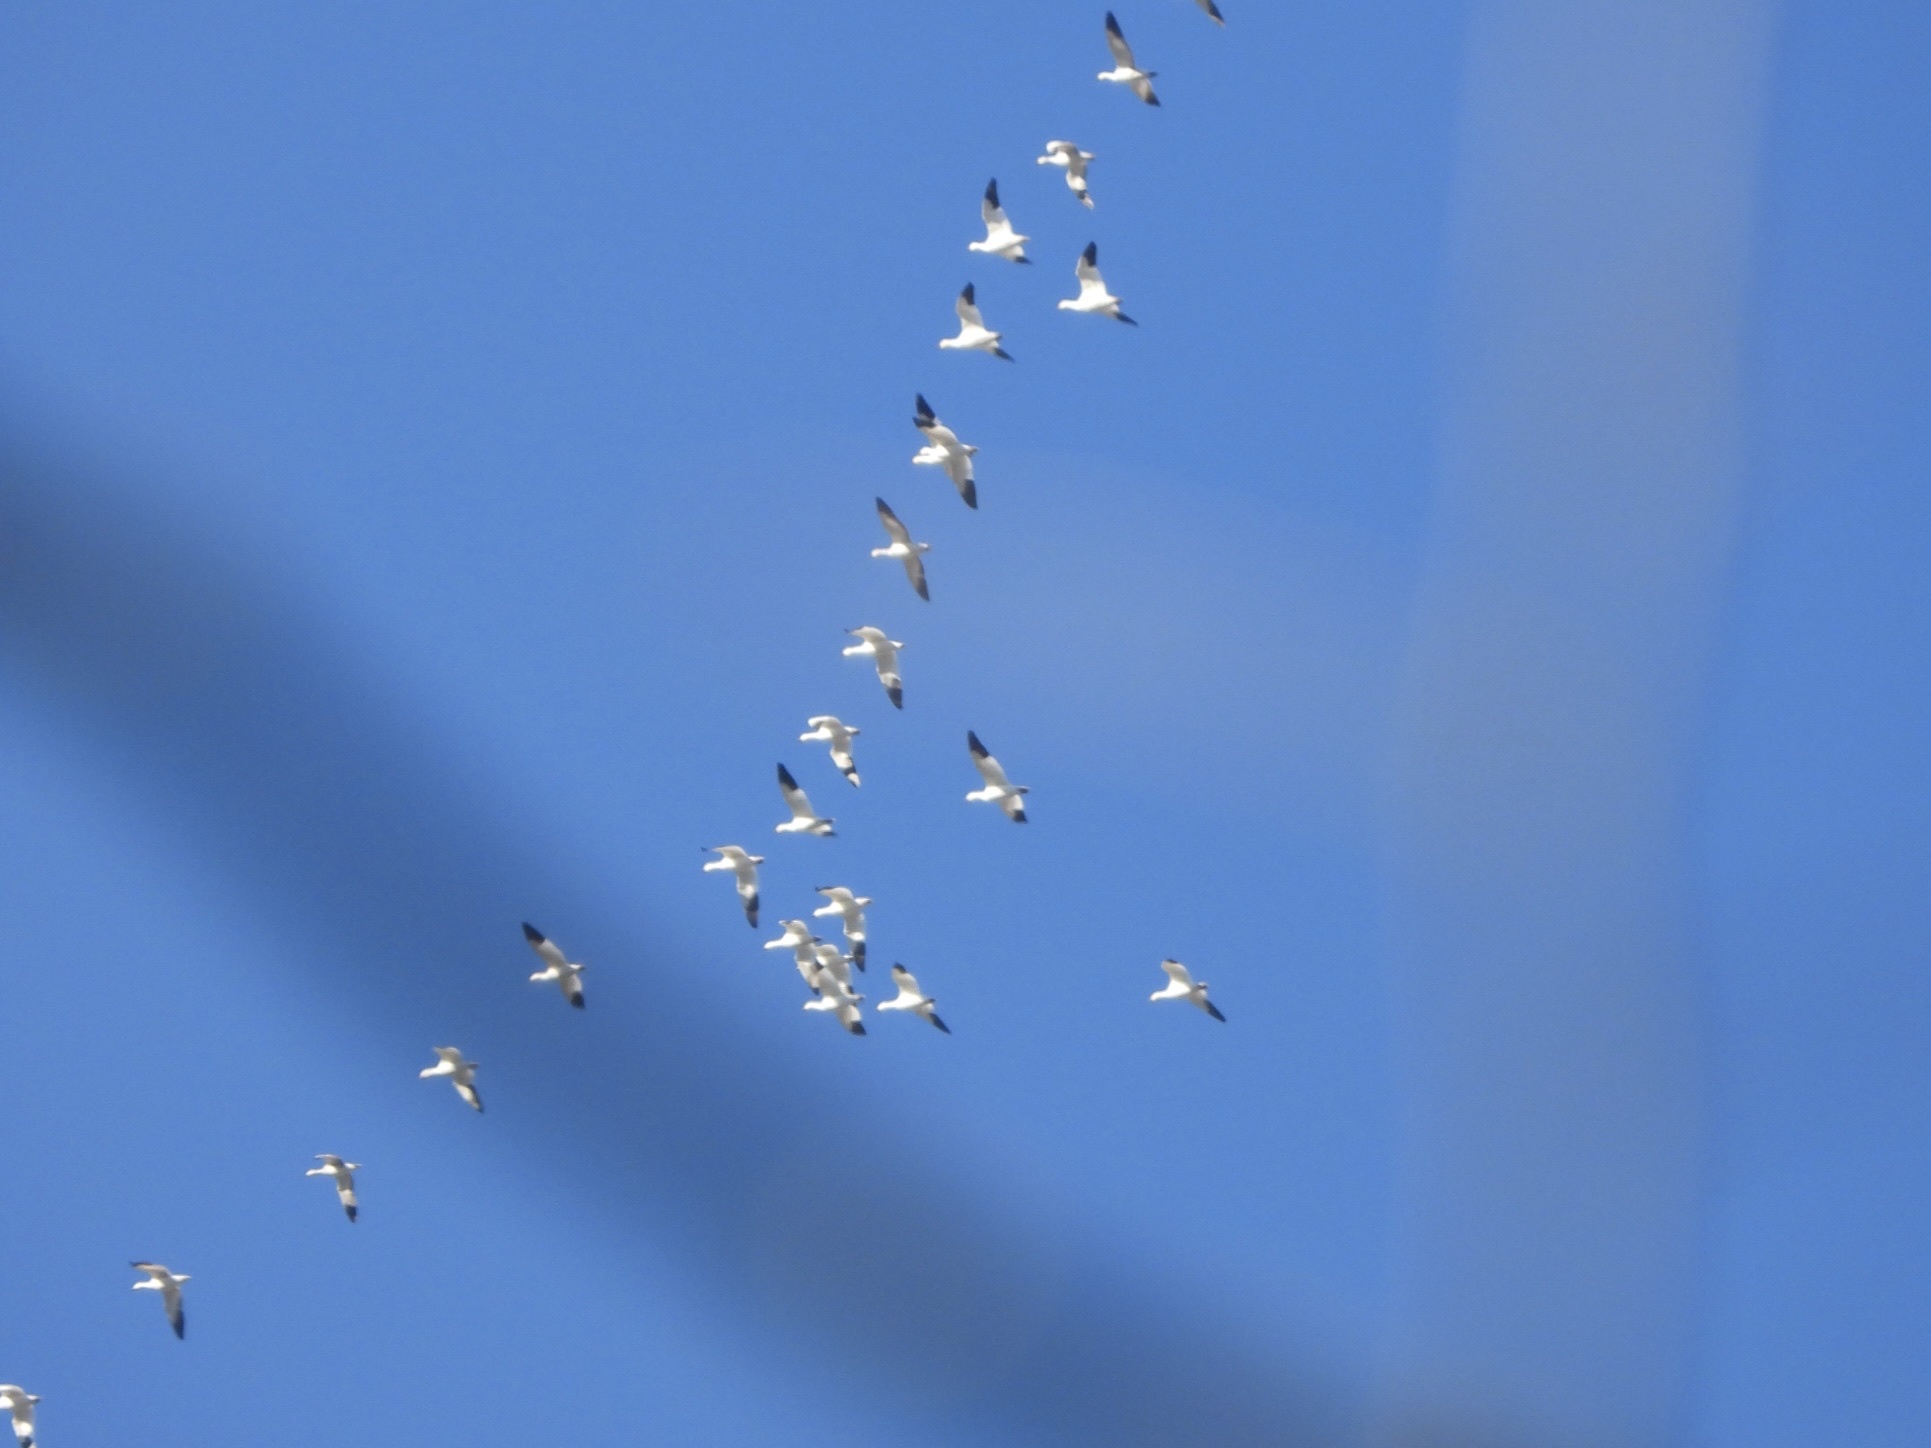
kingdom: Animalia
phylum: Chordata
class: Aves
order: Anseriformes
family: Anatidae
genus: Anser
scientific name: Anser caerulescens
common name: Snow goose
